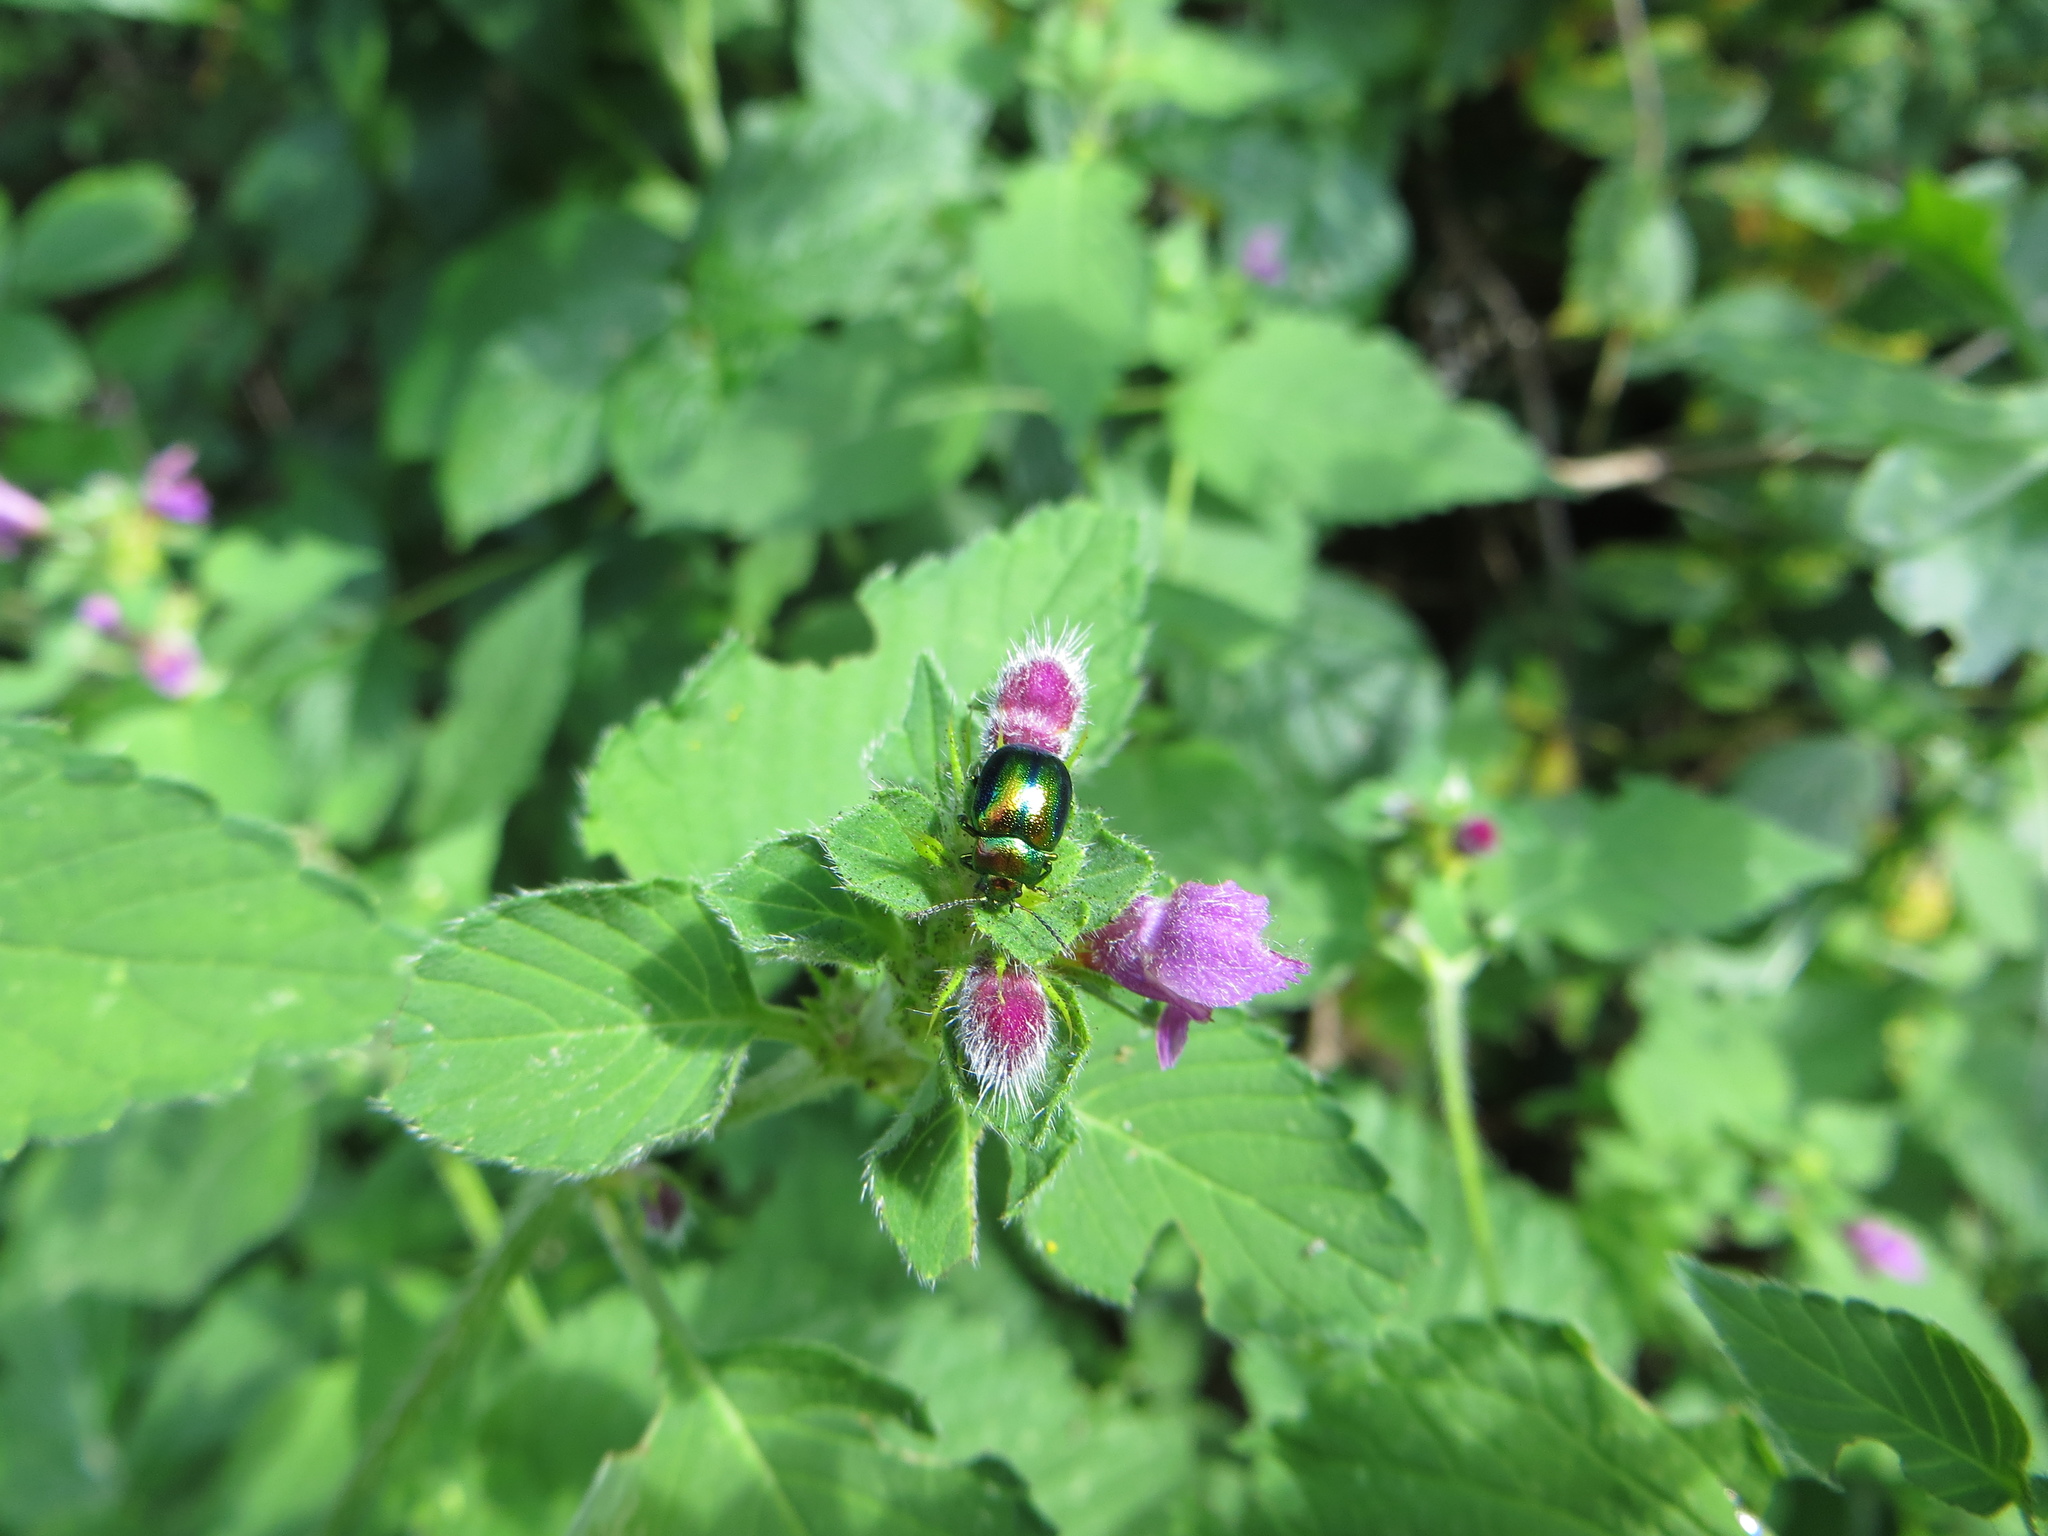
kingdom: Animalia
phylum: Arthropoda
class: Insecta
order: Coleoptera
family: Chrysomelidae
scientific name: Chrysomelidae
